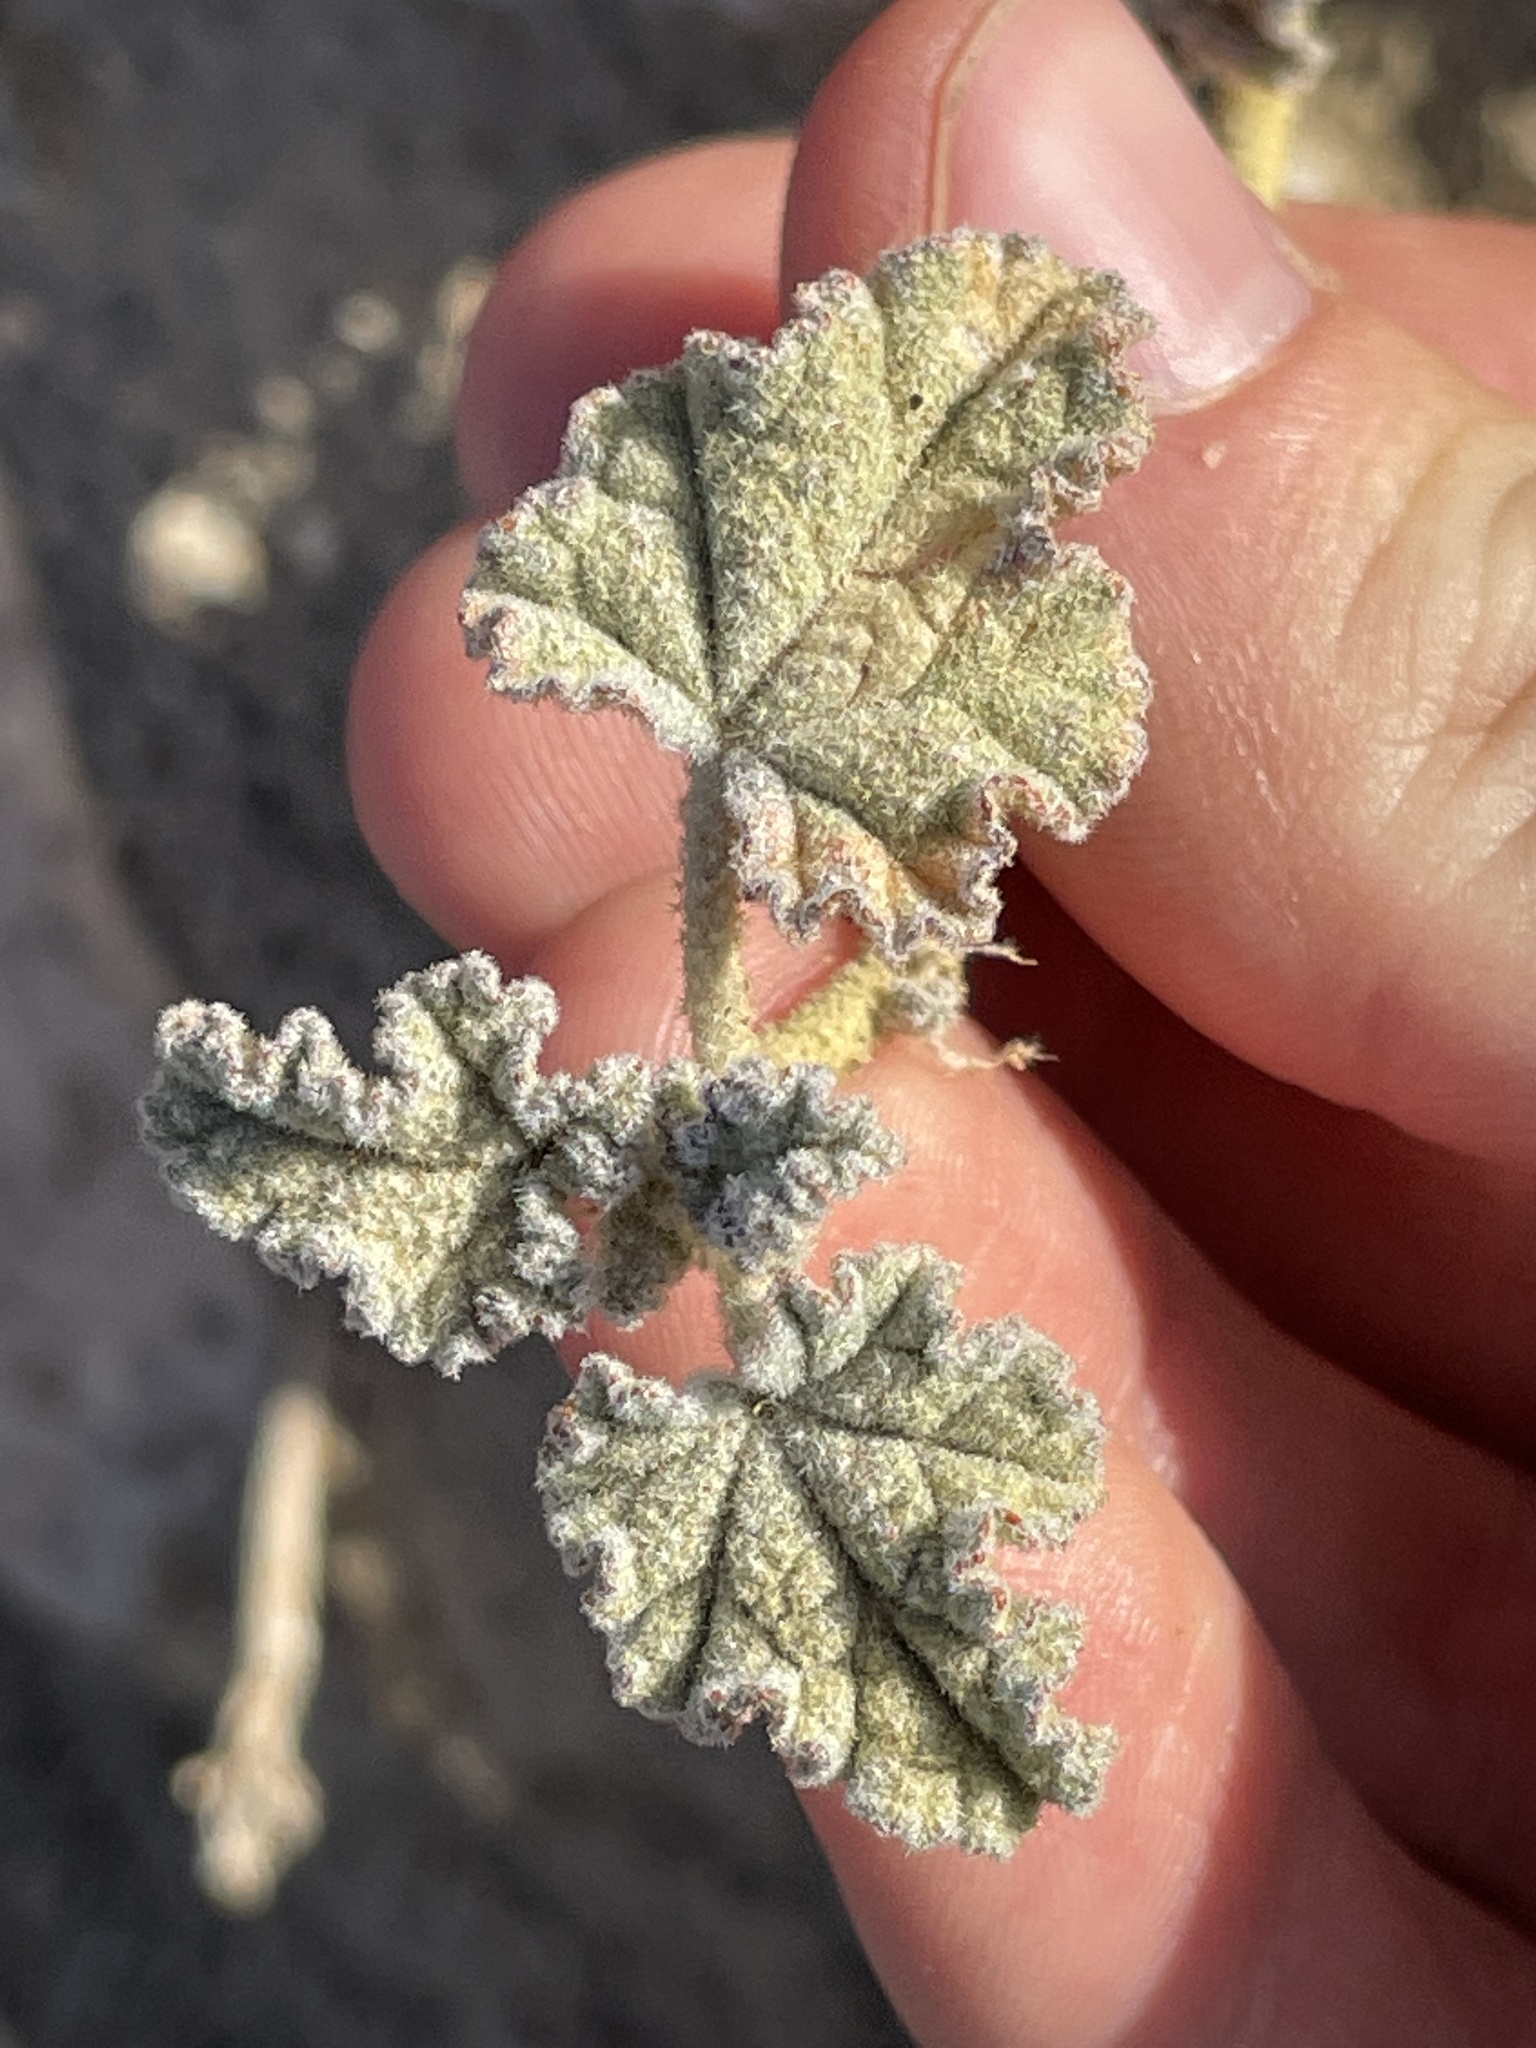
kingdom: Plantae
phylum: Tracheophyta
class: Magnoliopsida
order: Malvales
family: Malvaceae
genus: Sphaeralcea
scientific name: Sphaeralcea ambigua
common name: Apricot globe-mallow
